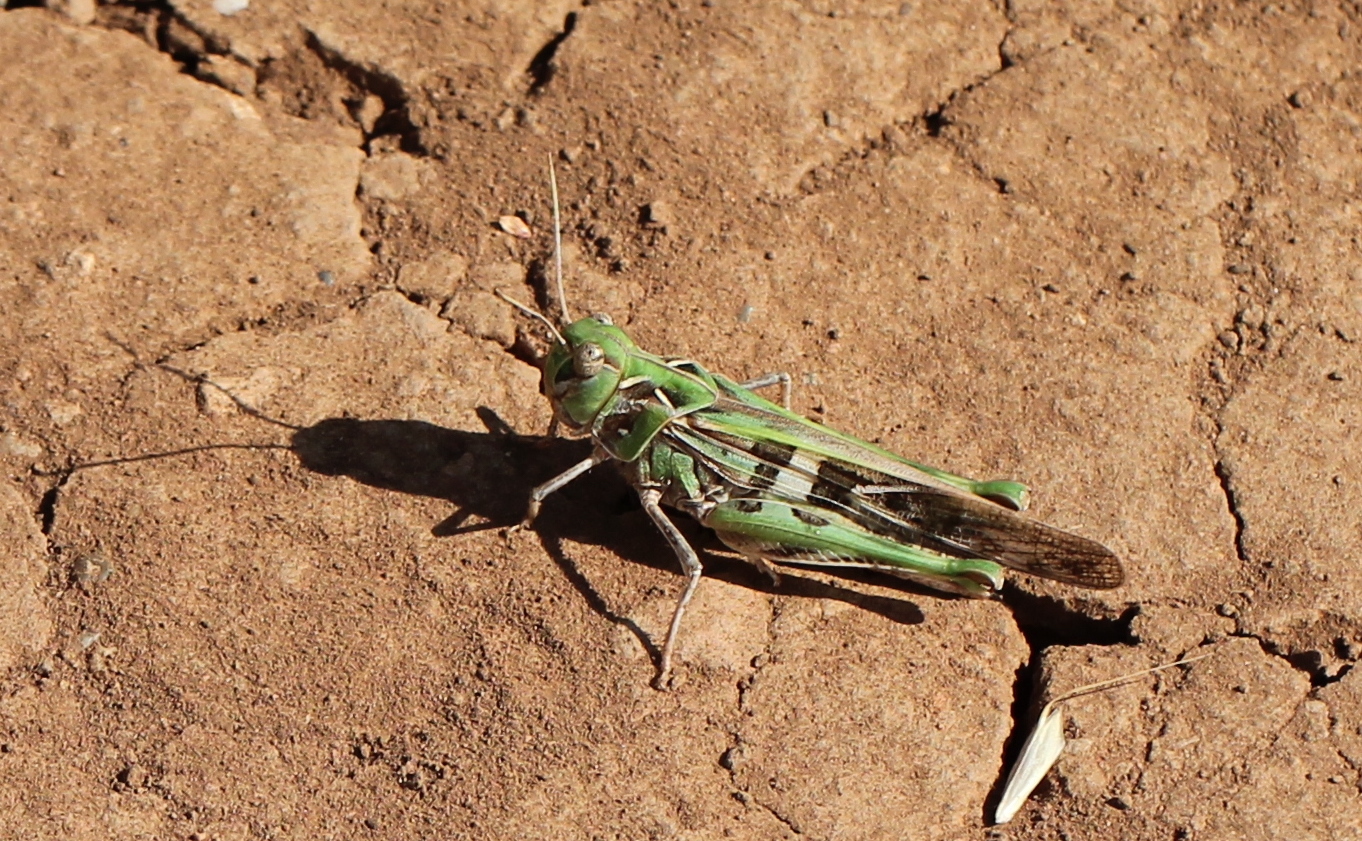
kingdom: Animalia
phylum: Arthropoda
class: Insecta
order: Orthoptera
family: Acrididae
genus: Oedaleus
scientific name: Oedaleus decorus
